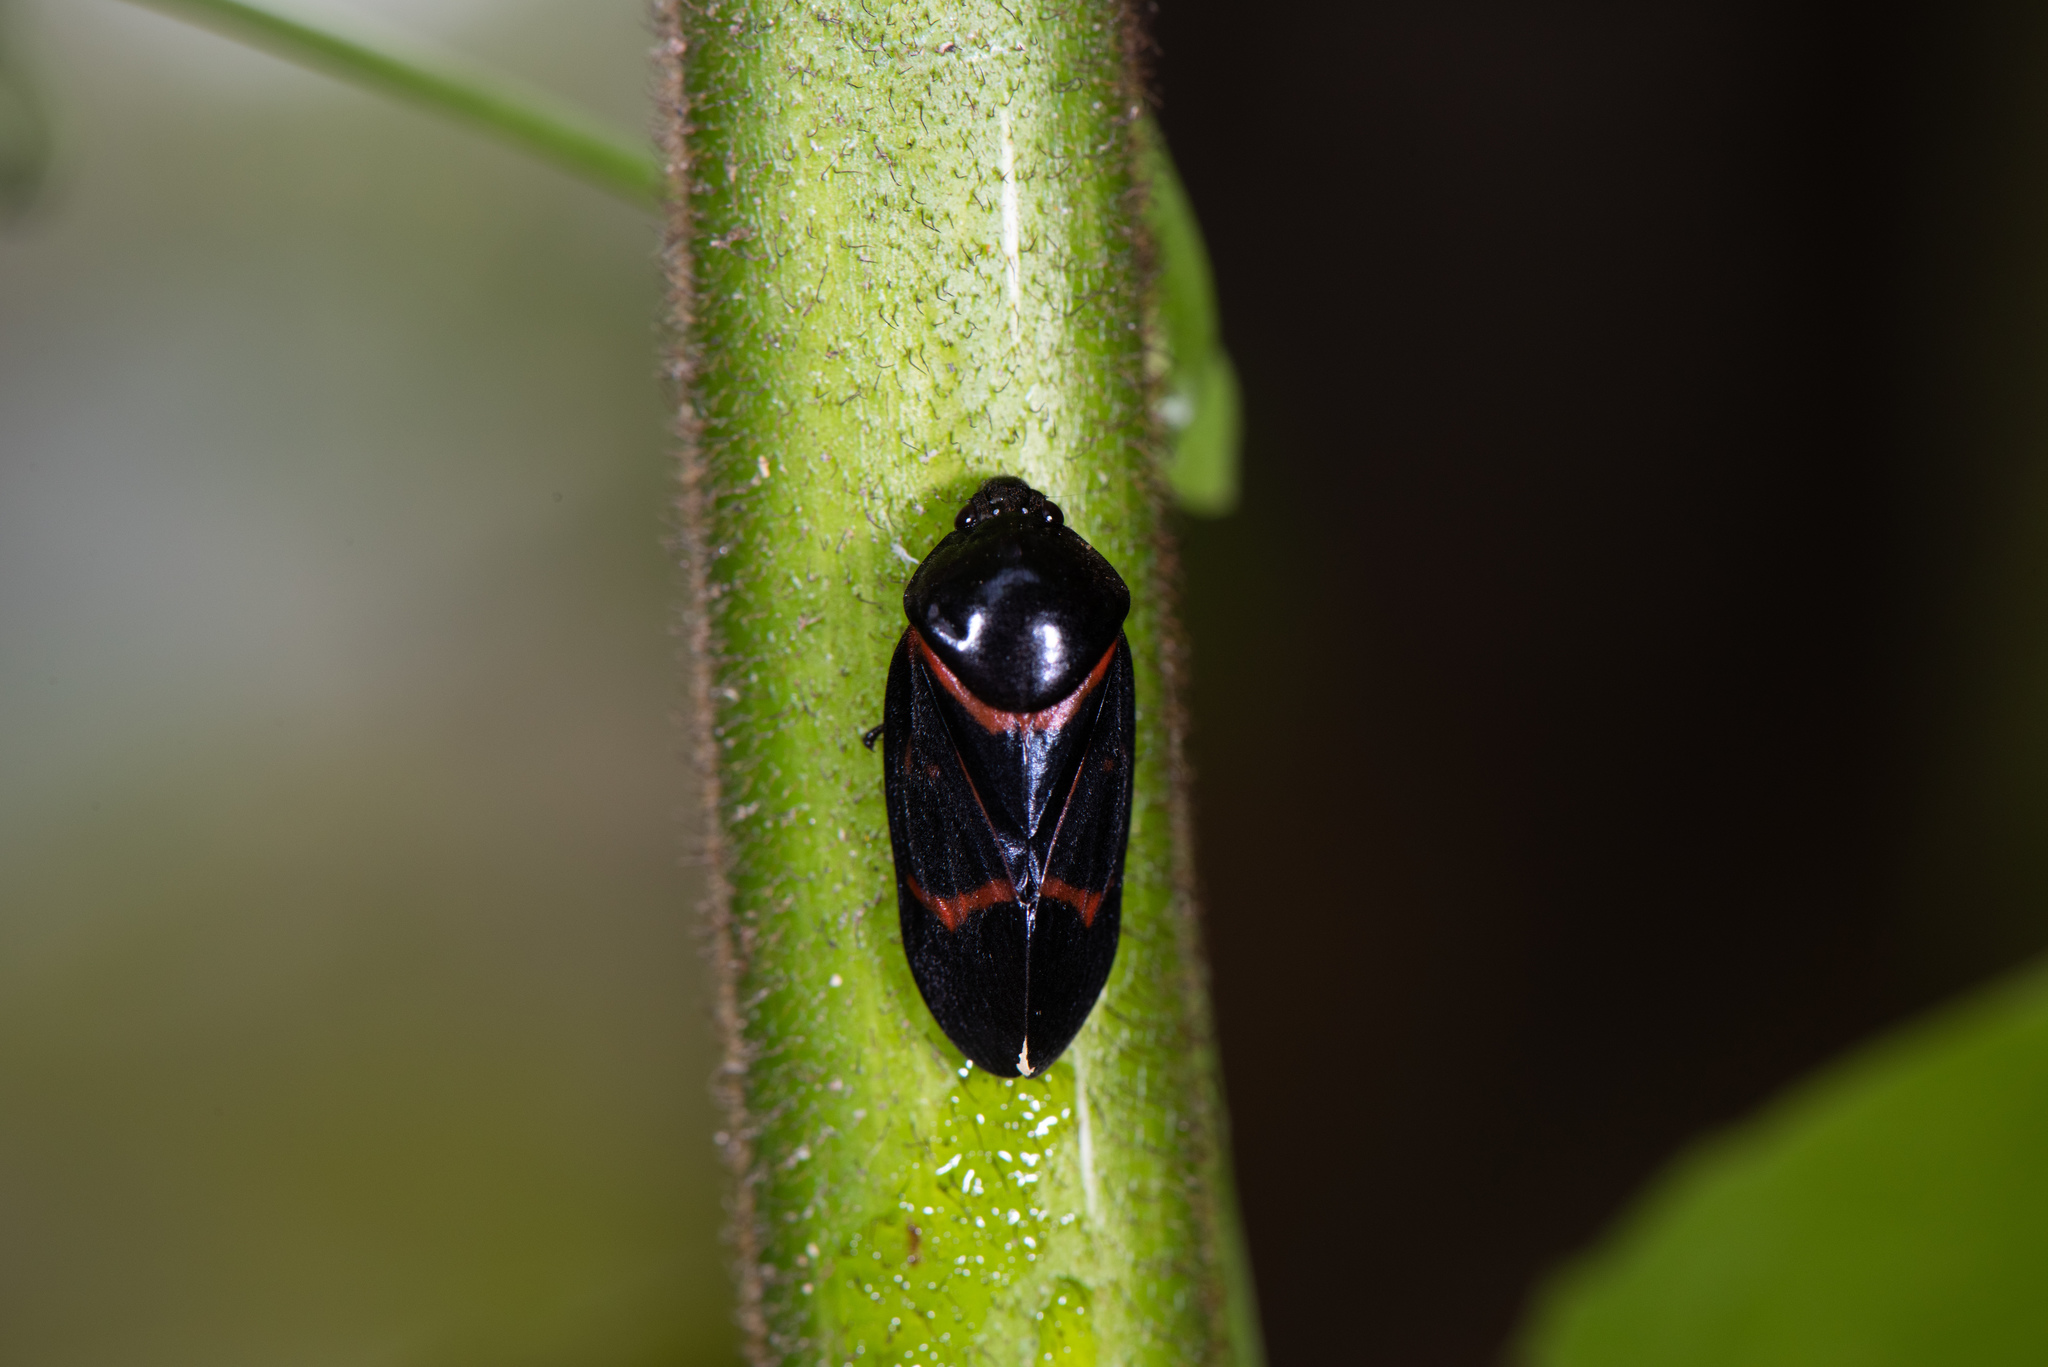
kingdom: Animalia
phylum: Arthropoda
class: Insecta
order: Hemiptera
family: Cercopidae
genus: Okiscarta
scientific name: Okiscarta uchidae
